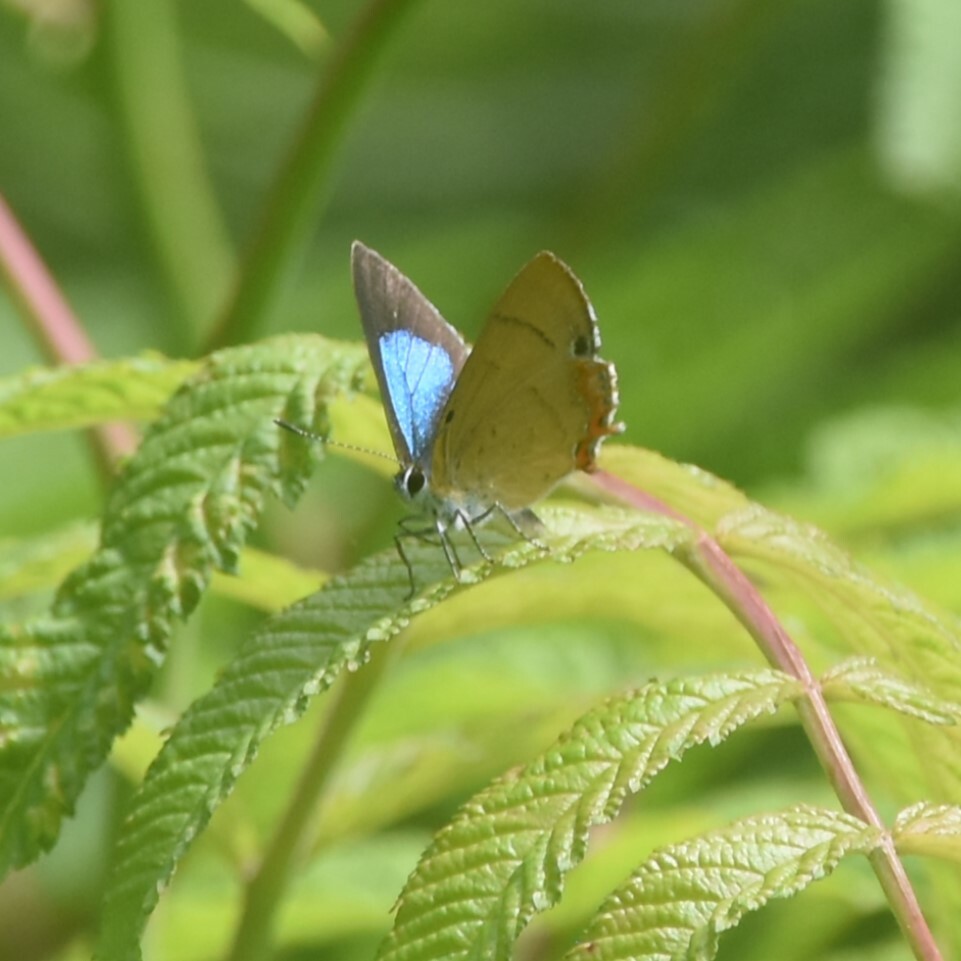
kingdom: Animalia
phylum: Arthropoda
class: Insecta
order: Lepidoptera
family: Lycaenidae
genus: Heliophorus
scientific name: Heliophorus
